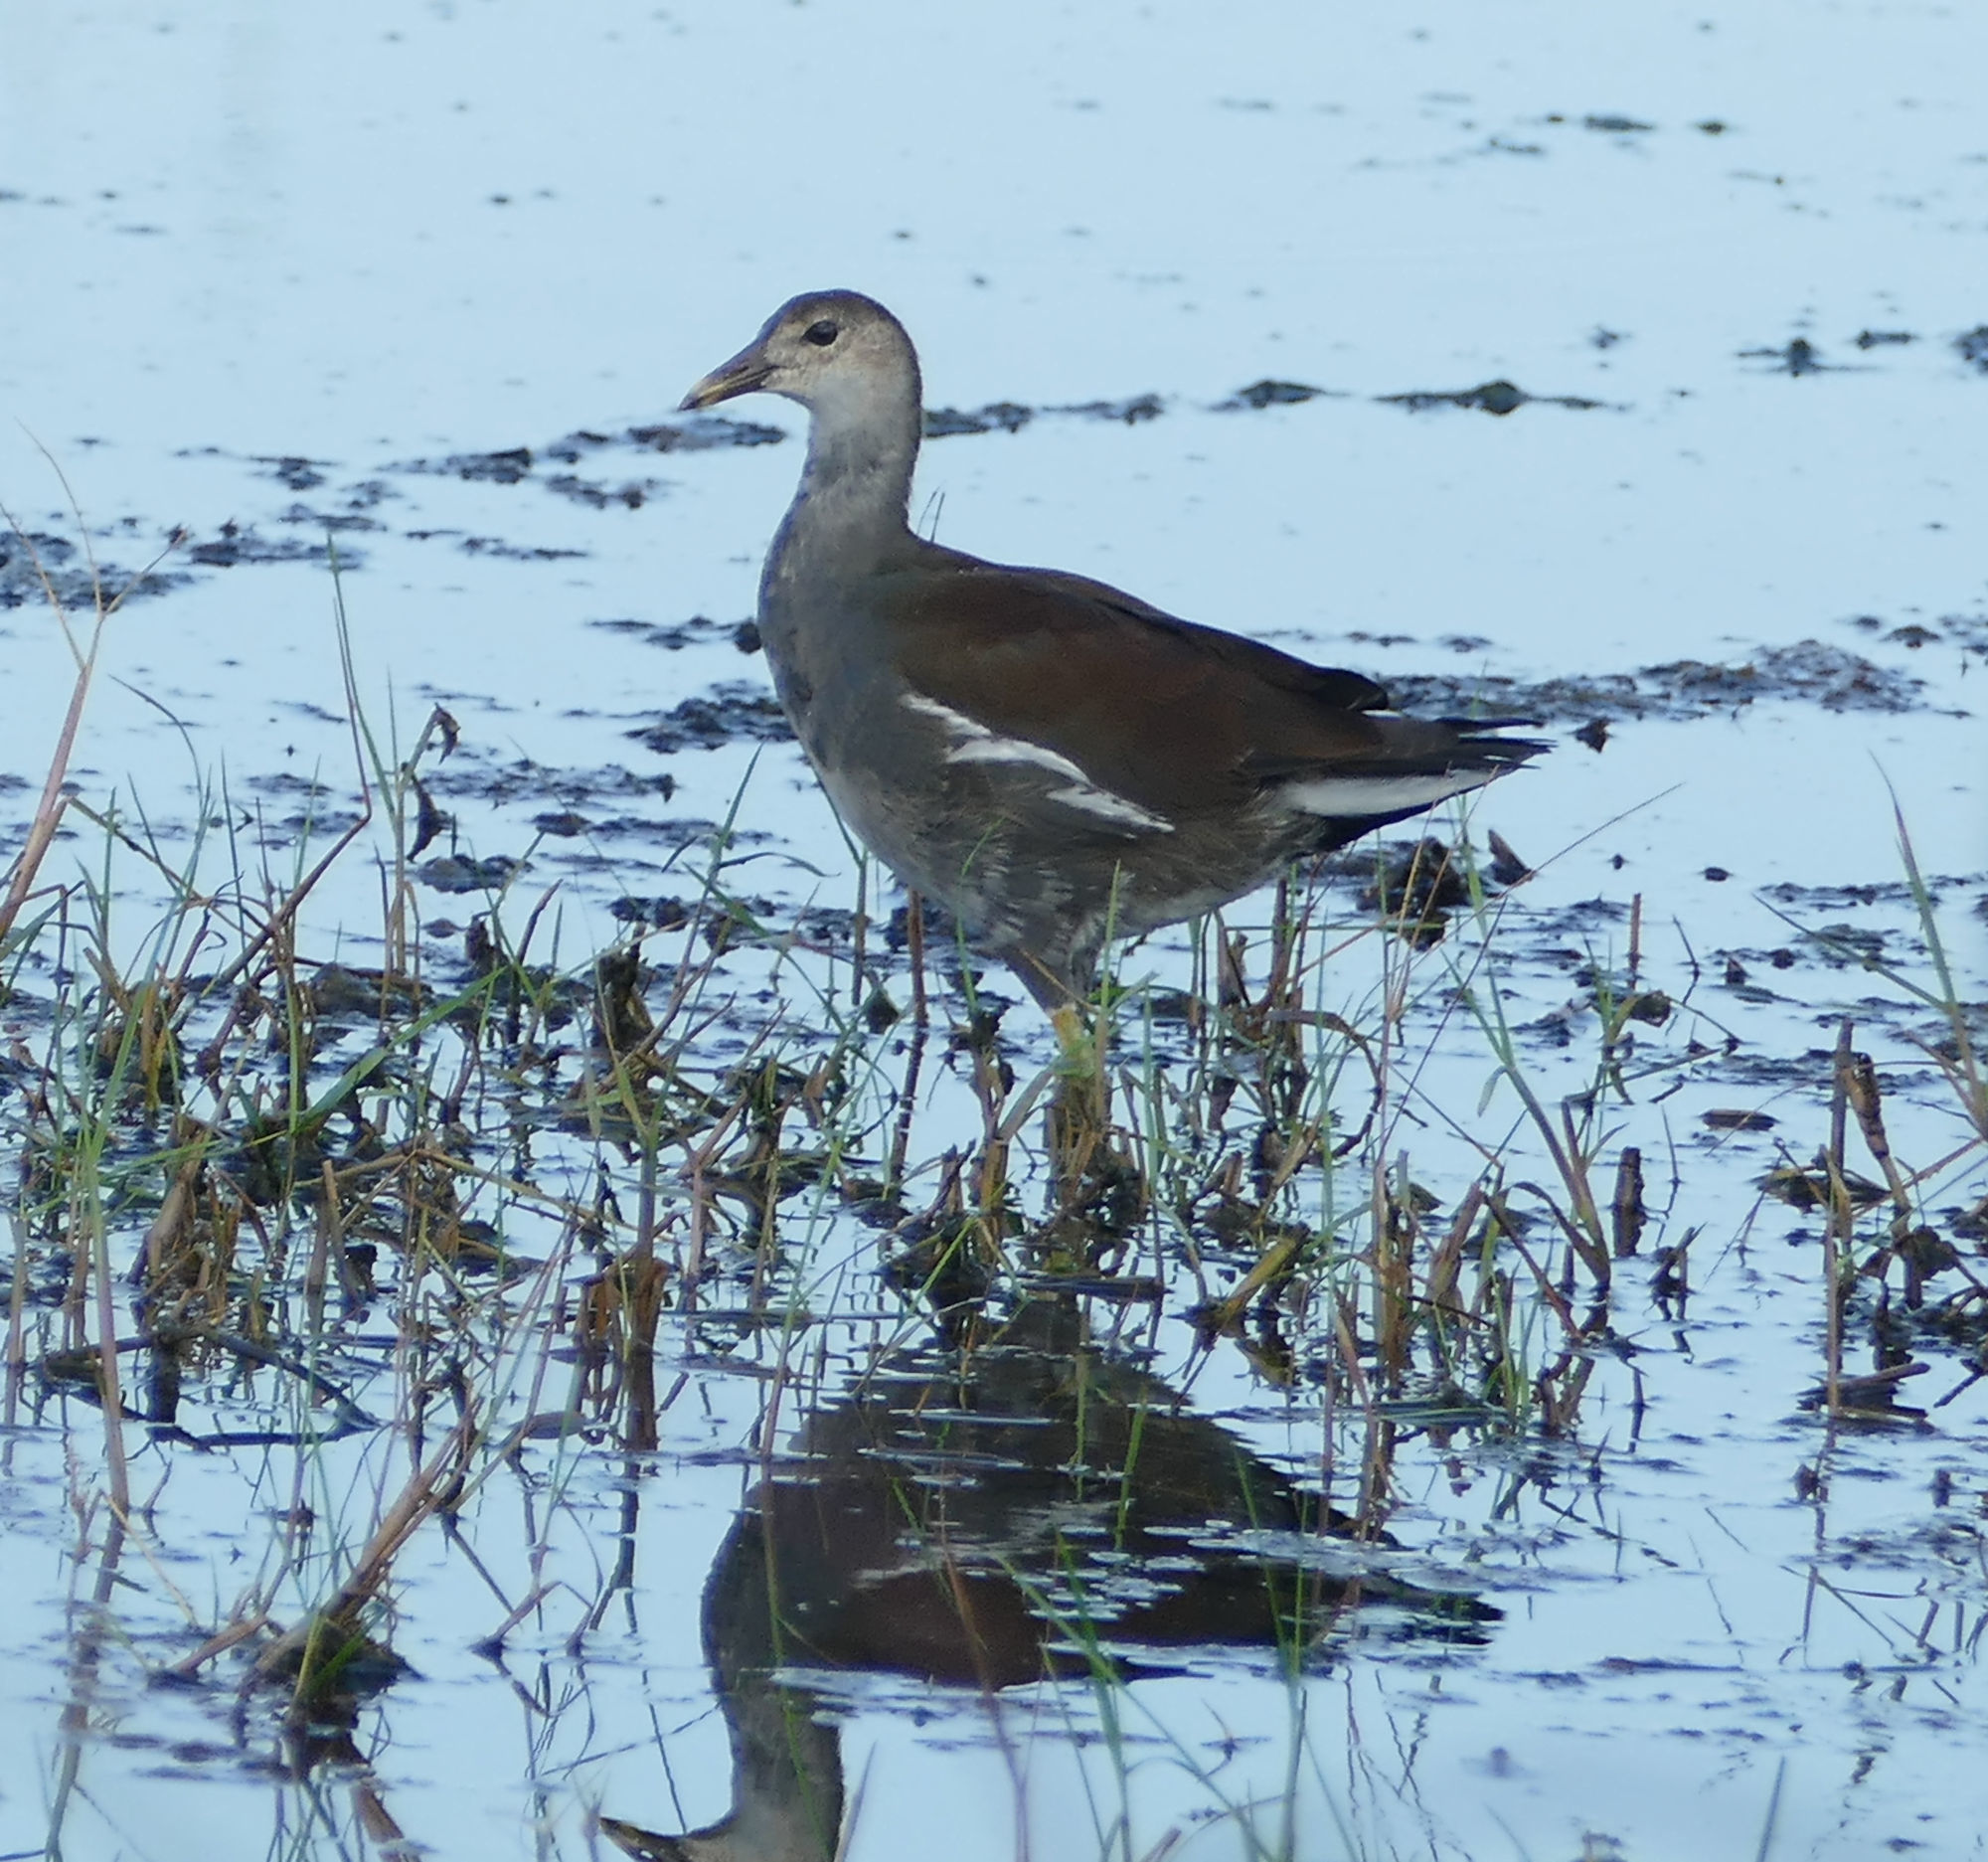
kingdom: Animalia
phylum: Chordata
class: Aves
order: Gruiformes
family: Rallidae
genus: Gallinula
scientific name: Gallinula chloropus
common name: Common moorhen
